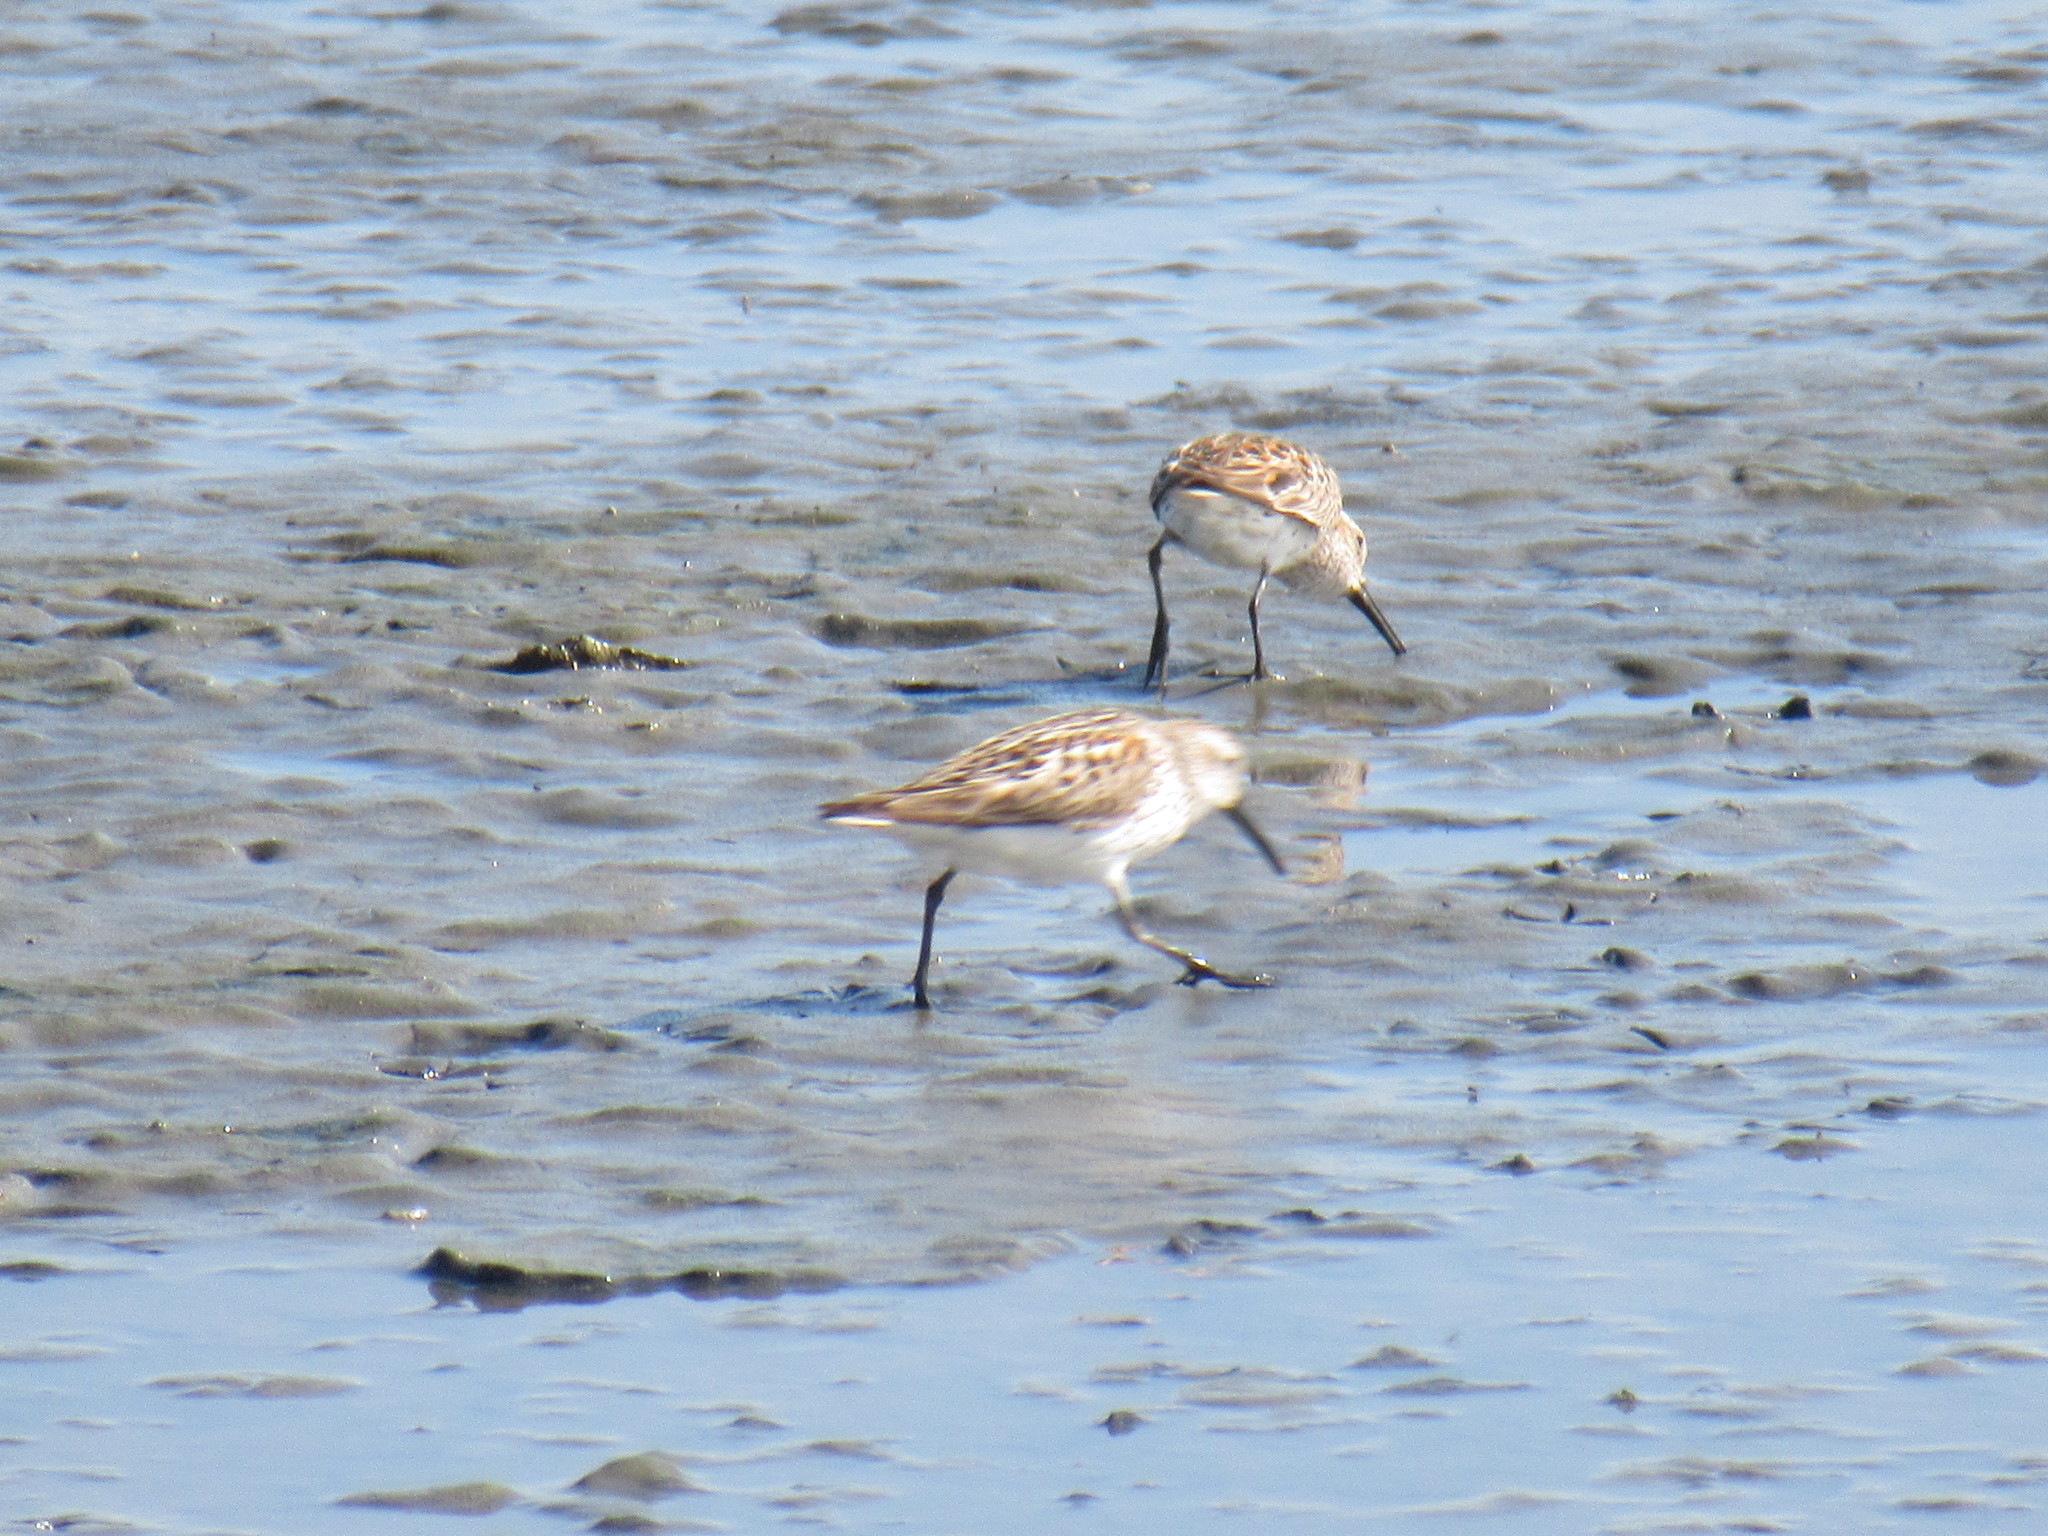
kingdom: Animalia
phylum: Chordata
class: Aves
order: Charadriiformes
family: Scolopacidae
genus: Calidris
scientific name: Calidris mauri
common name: Western sandpiper
